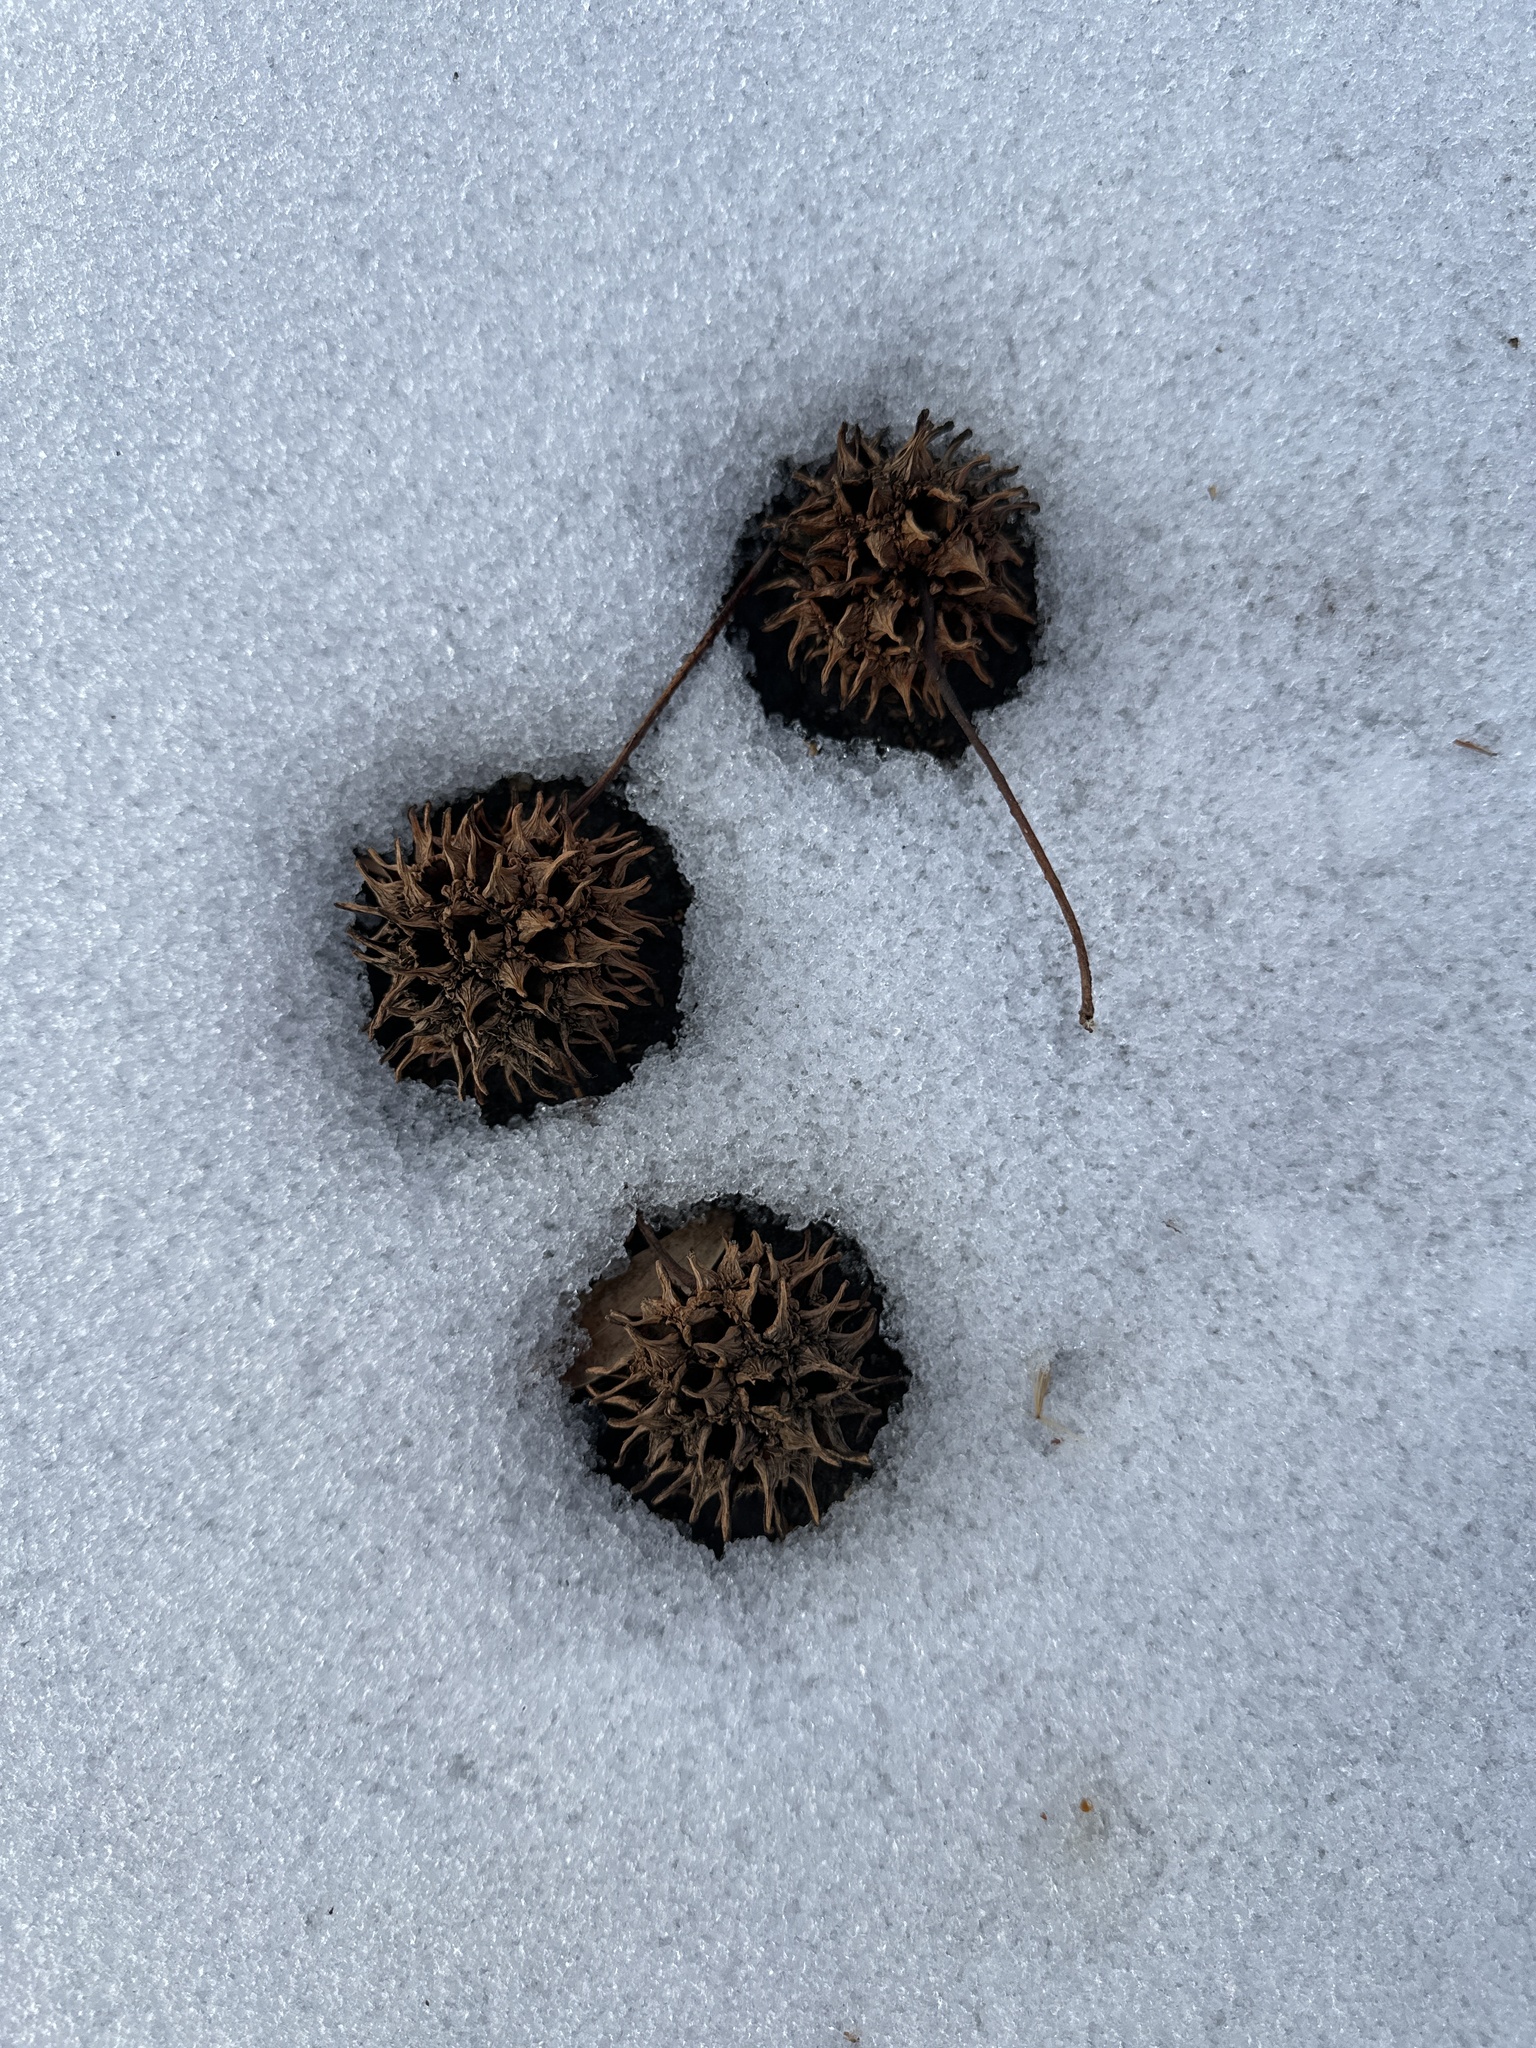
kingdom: Plantae
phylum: Tracheophyta
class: Magnoliopsida
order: Saxifragales
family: Altingiaceae
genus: Liquidambar
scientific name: Liquidambar styraciflua
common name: Sweet gum
